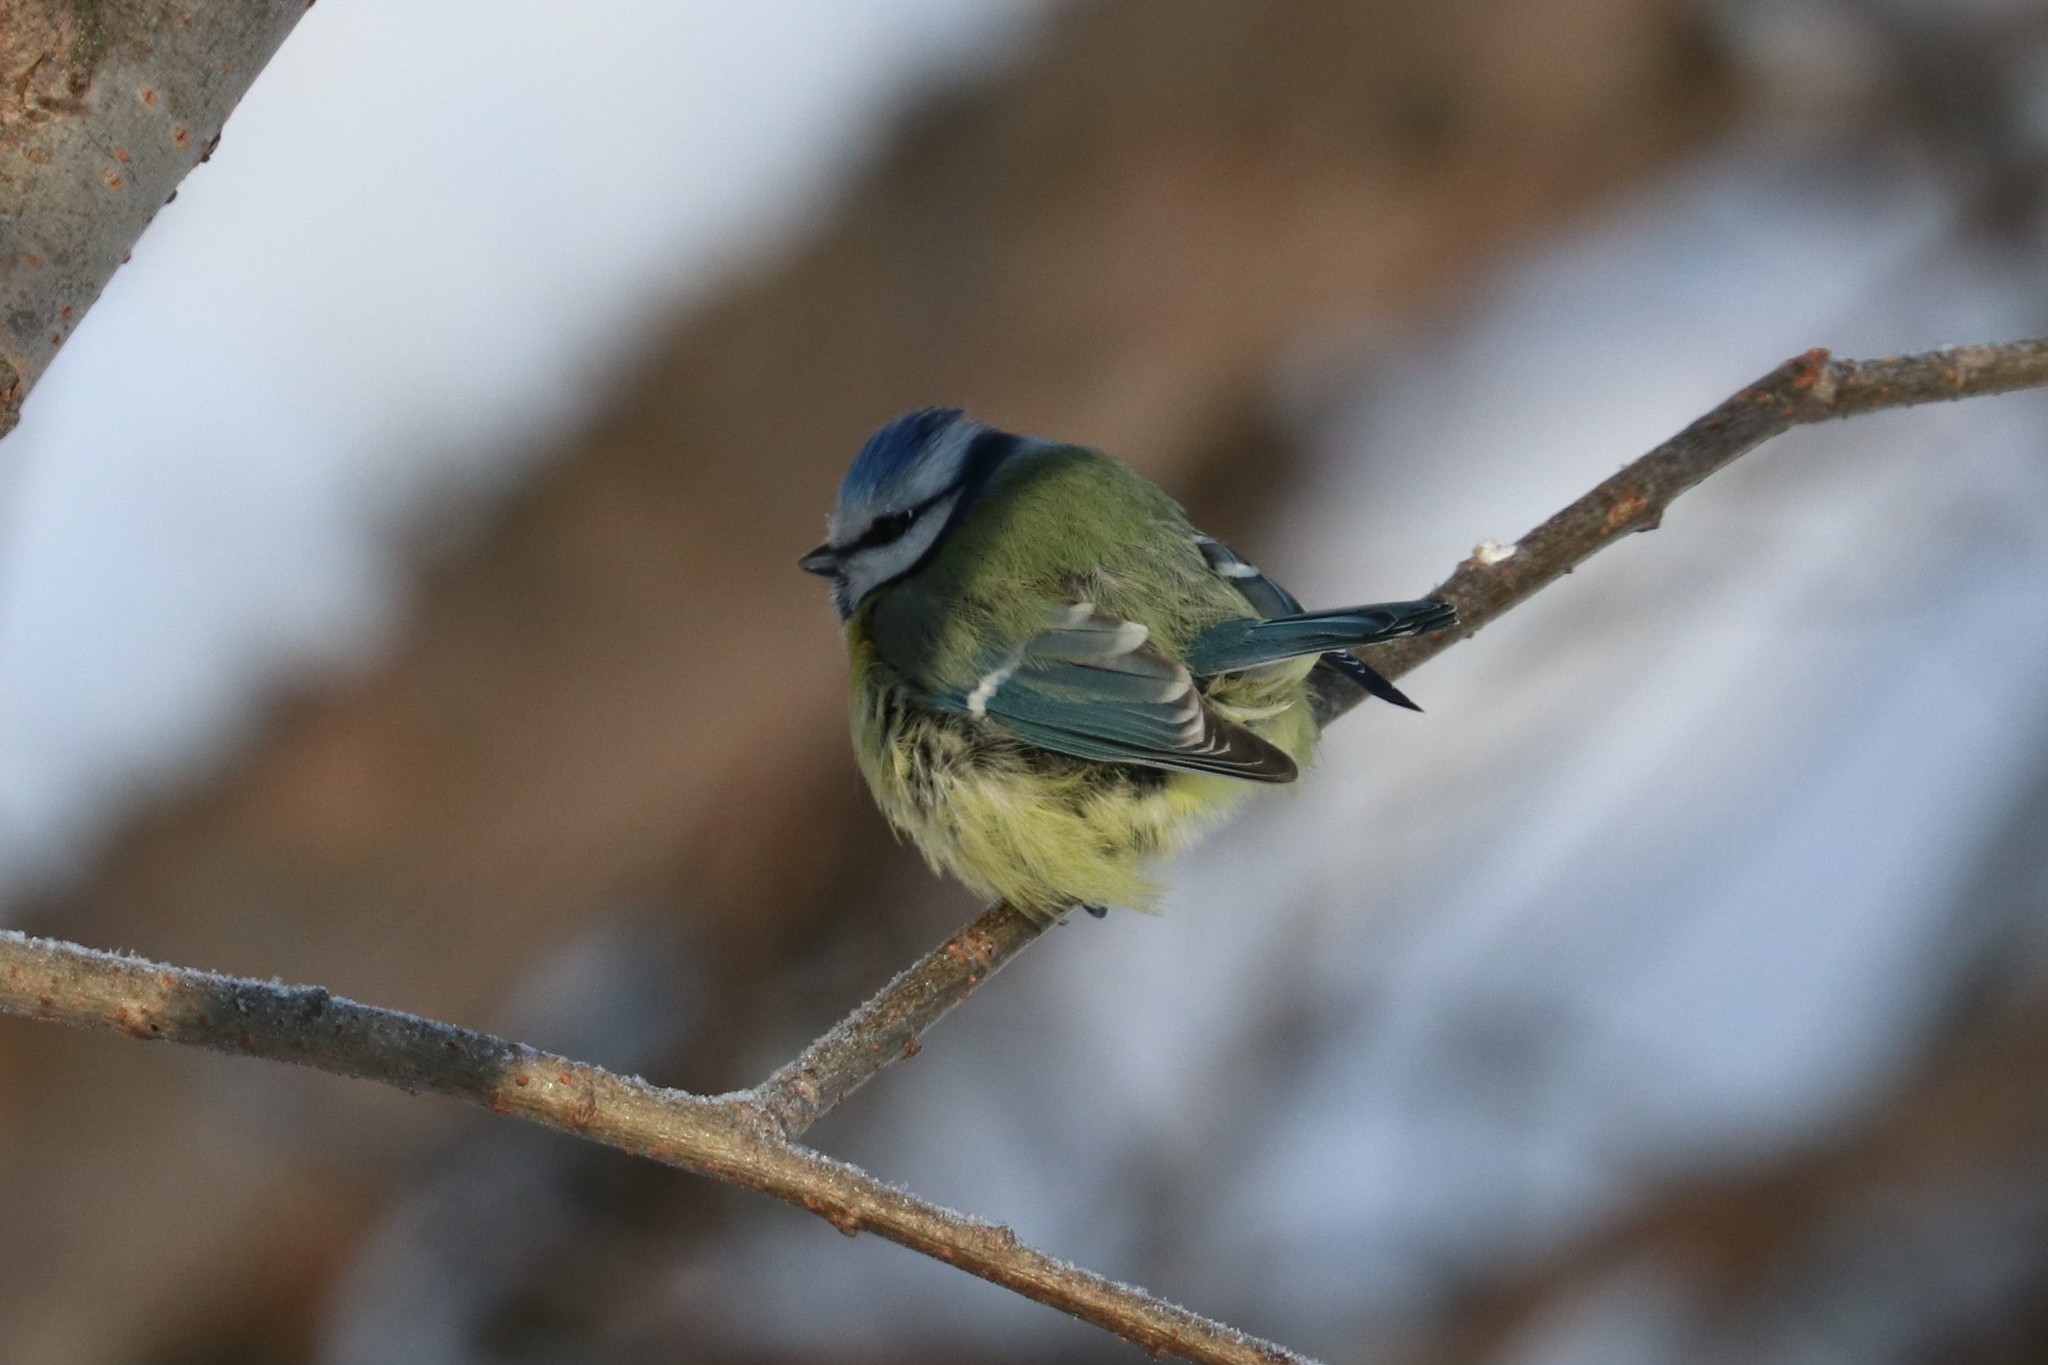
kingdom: Animalia
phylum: Chordata
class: Aves
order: Passeriformes
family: Paridae
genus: Cyanistes
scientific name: Cyanistes caeruleus
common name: Eurasian blue tit
